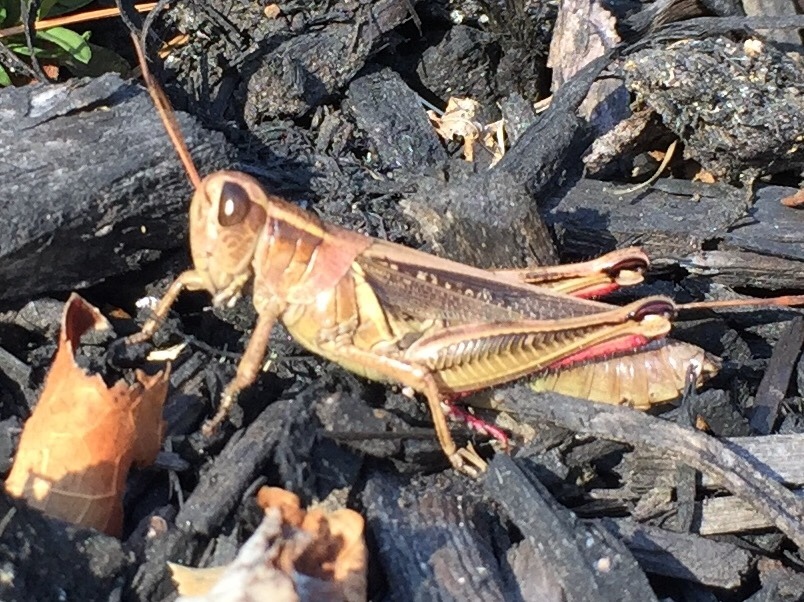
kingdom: Animalia
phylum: Arthropoda
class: Insecta
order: Orthoptera
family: Acrididae
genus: Melanoplus
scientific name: Melanoplus bivittatus
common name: Two-striped grasshopper
